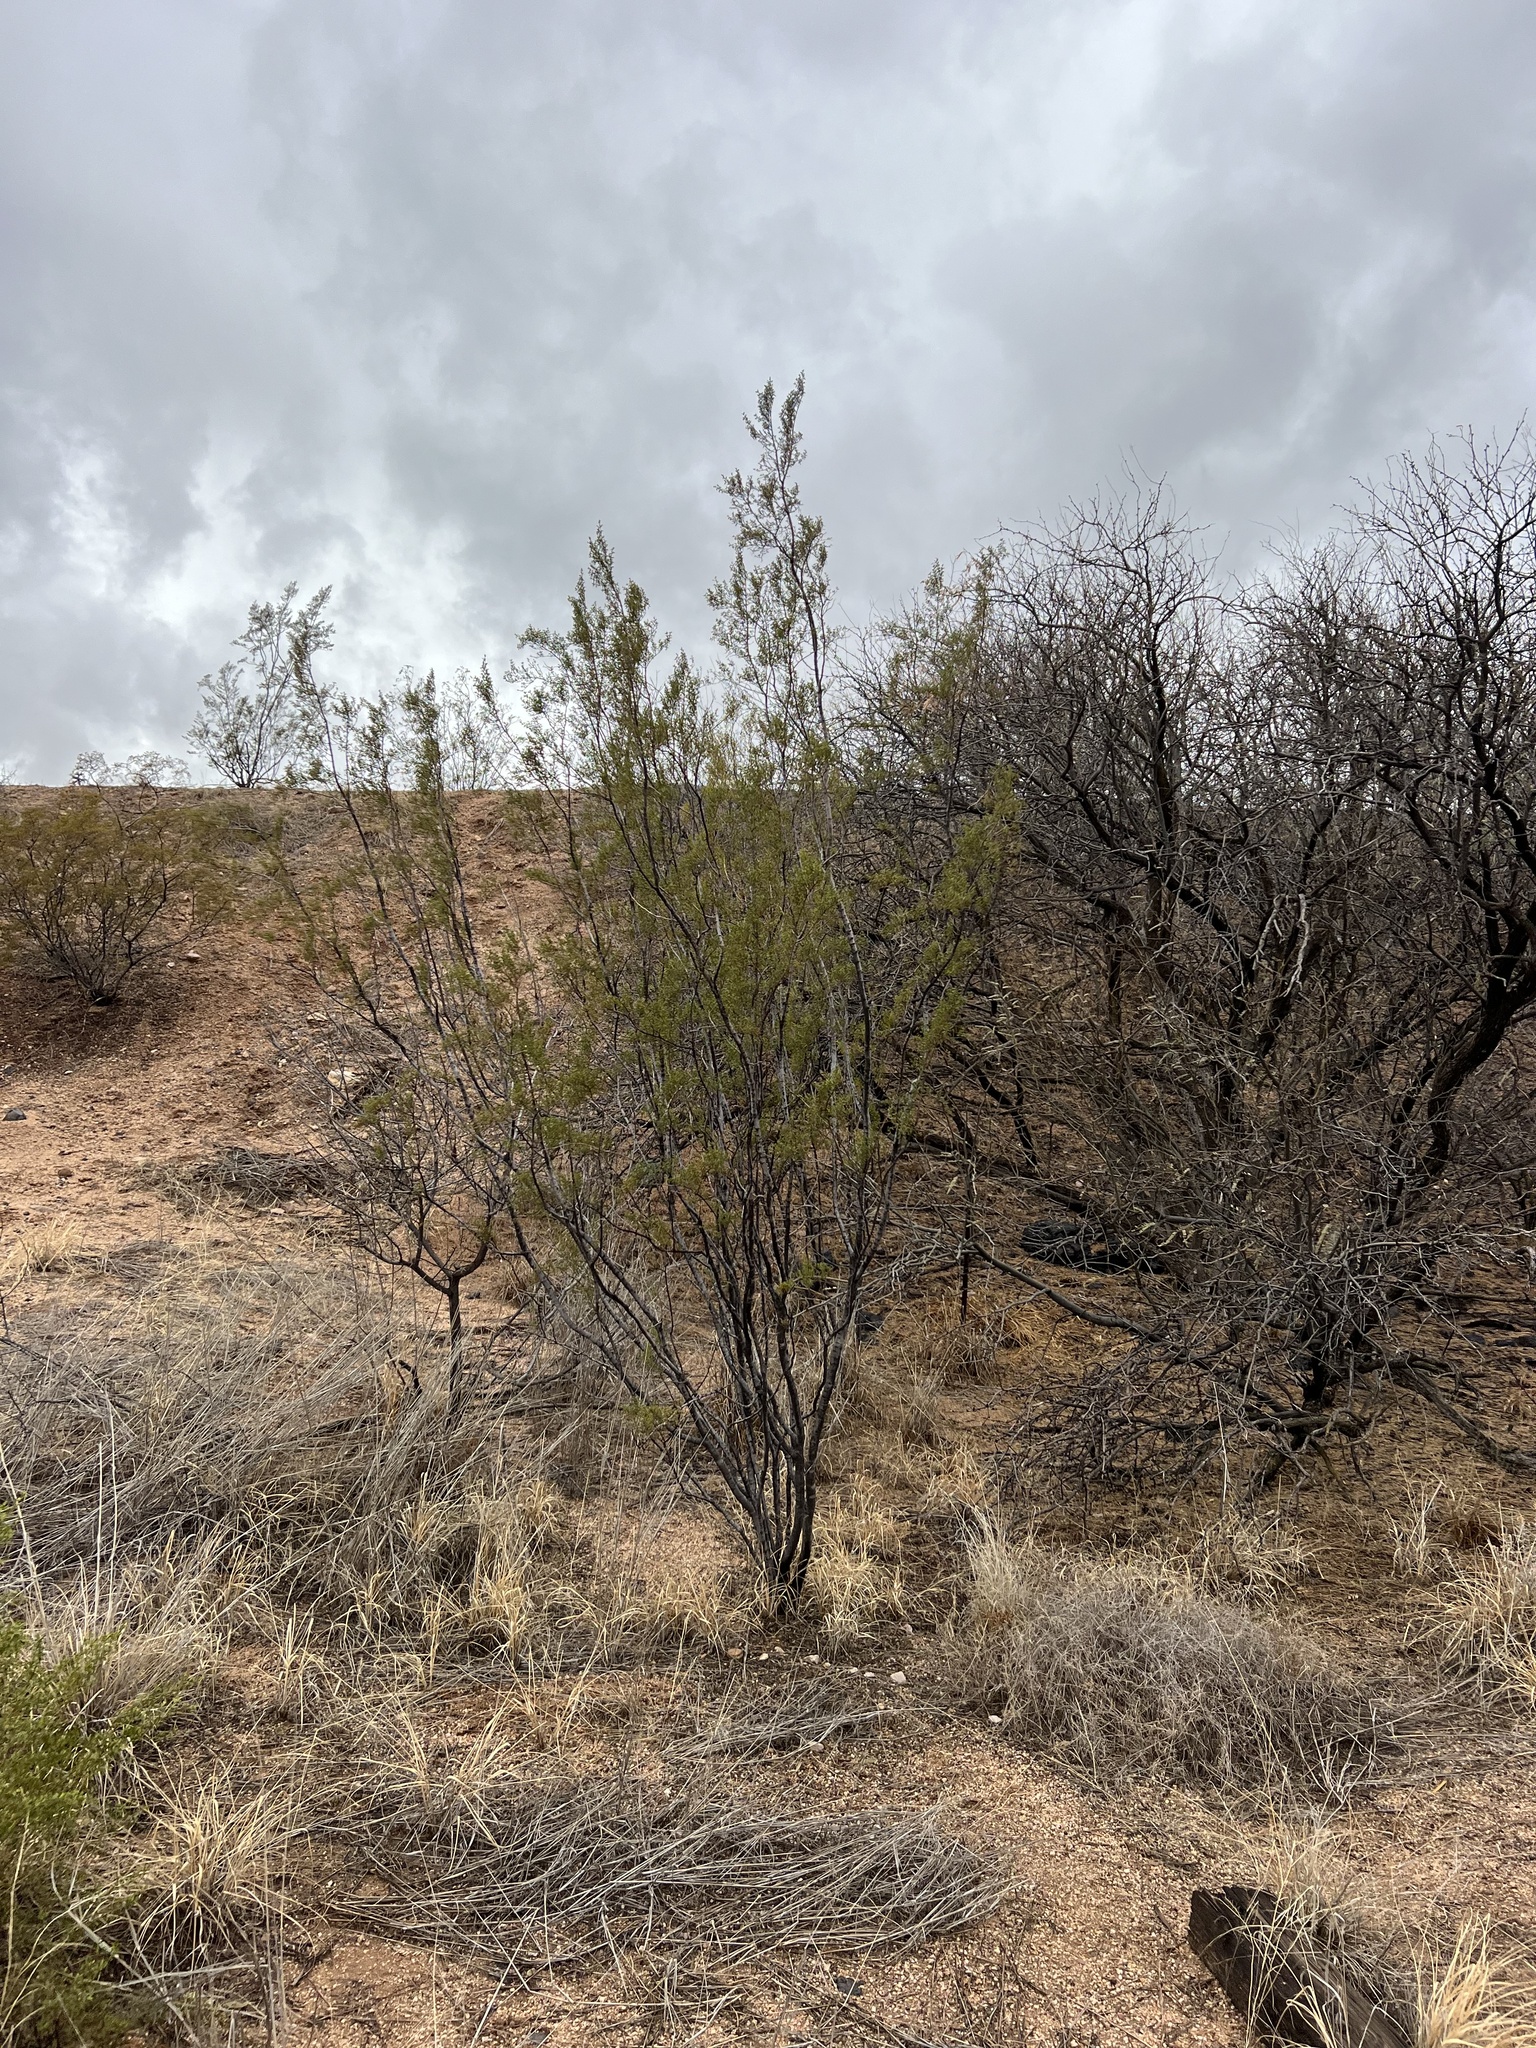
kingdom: Plantae
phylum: Tracheophyta
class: Magnoliopsida
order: Zygophyllales
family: Zygophyllaceae
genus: Larrea
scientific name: Larrea tridentata
